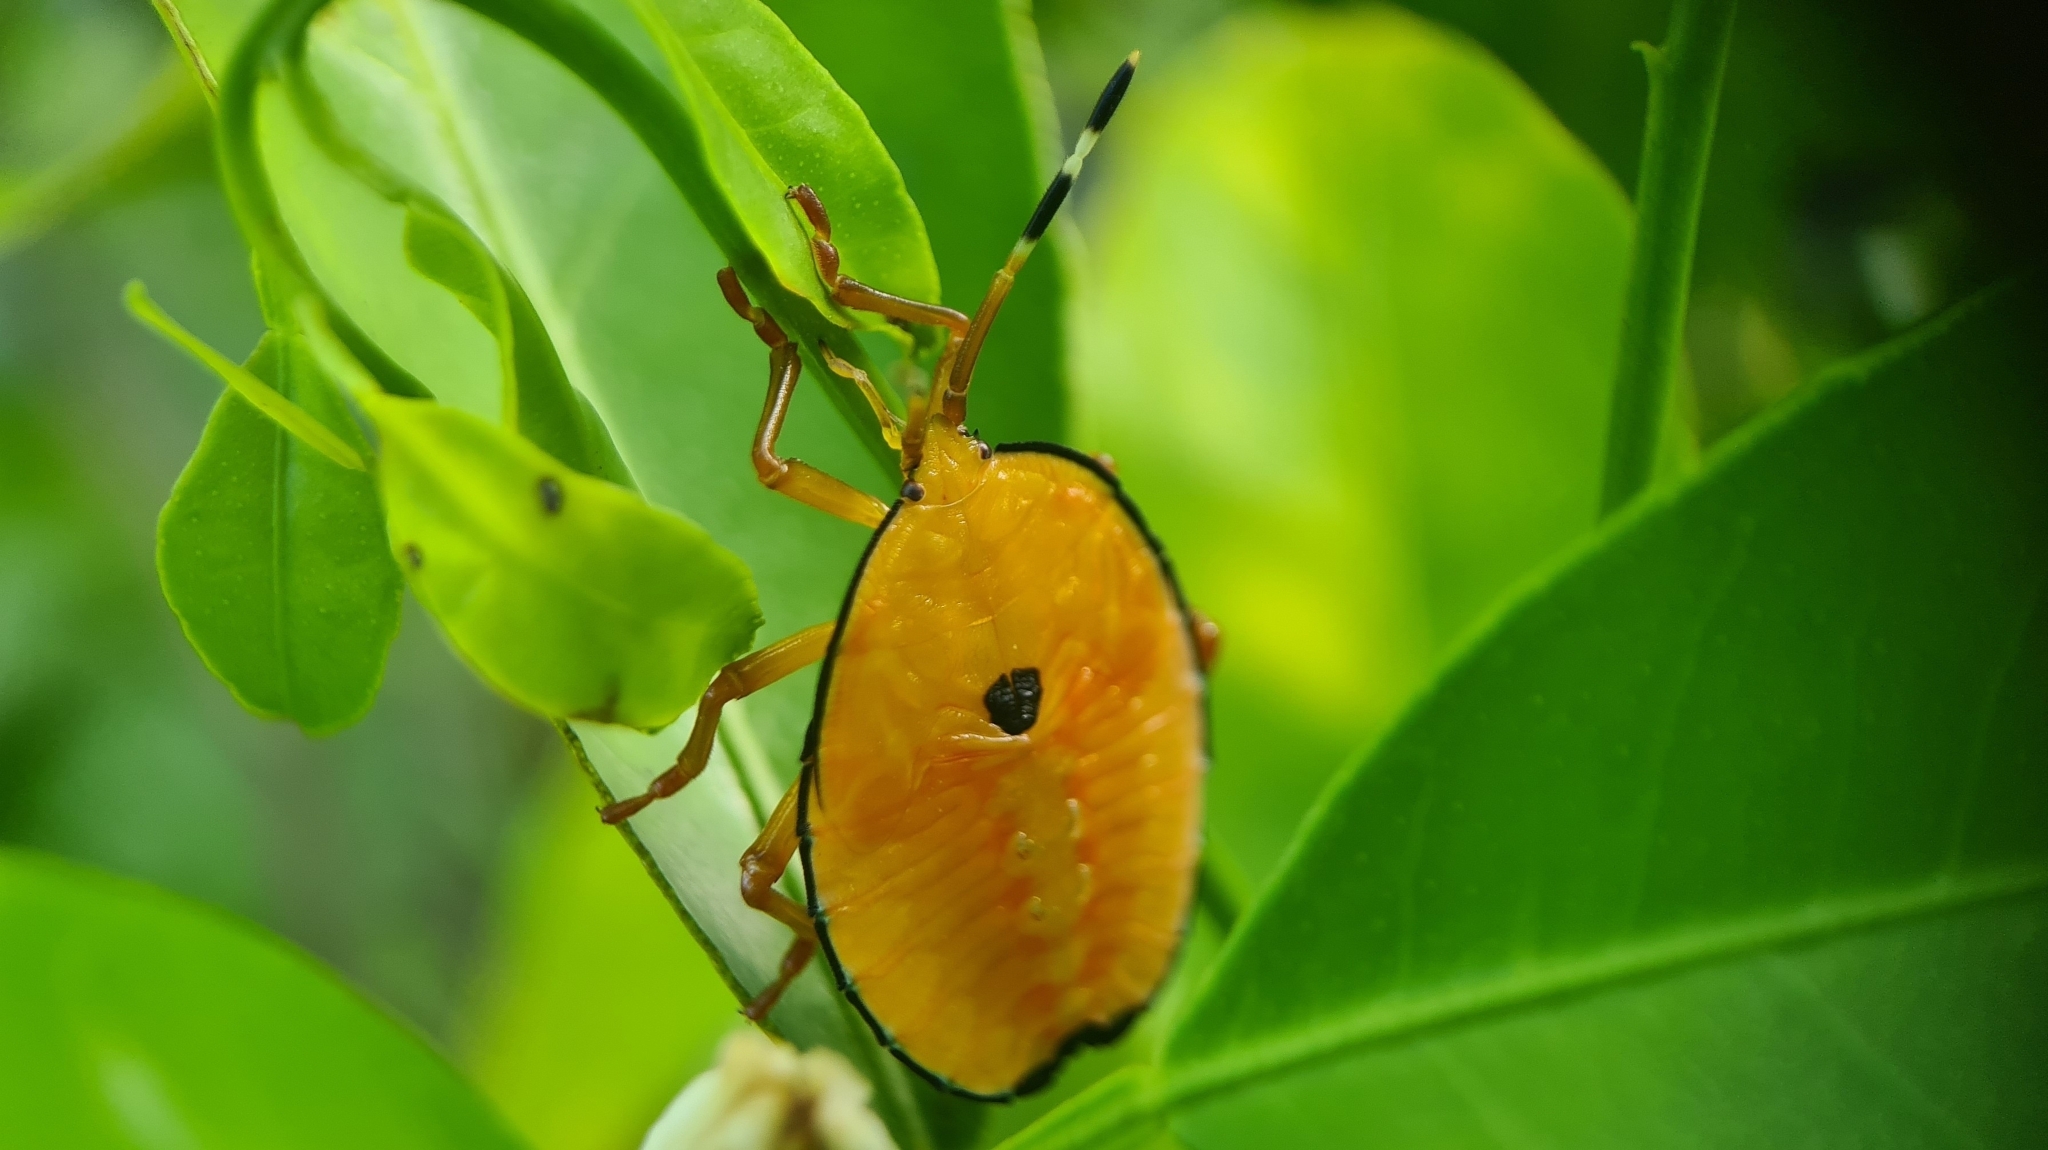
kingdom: Animalia
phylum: Arthropoda
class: Insecta
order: Hemiptera
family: Tessaratomidae
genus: Musgraveia
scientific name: Musgraveia sulciventris
